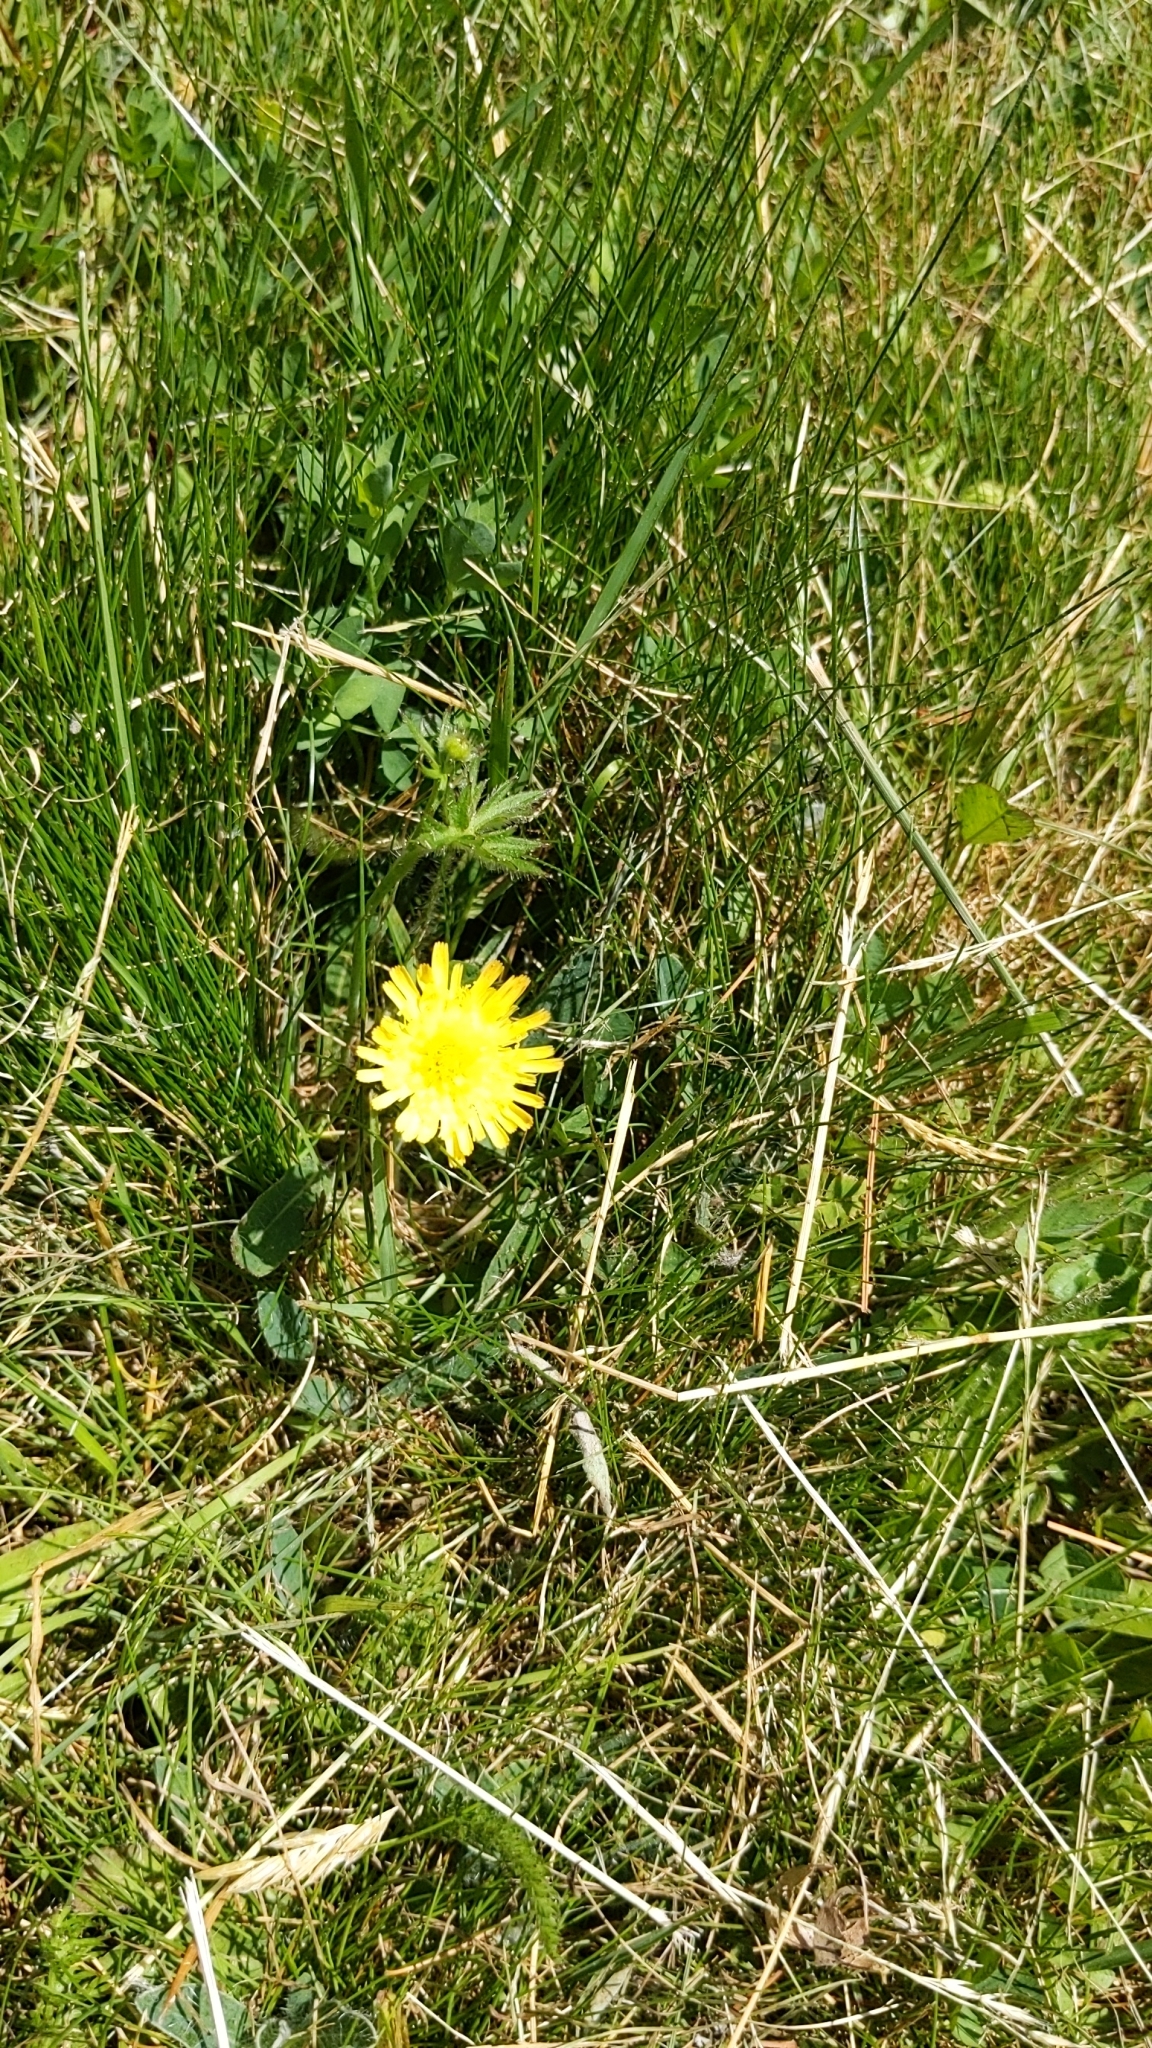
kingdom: Plantae
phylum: Tracheophyta
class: Magnoliopsida
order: Asterales
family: Asteraceae
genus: Tussilago
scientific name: Tussilago farfara
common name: Coltsfoot
